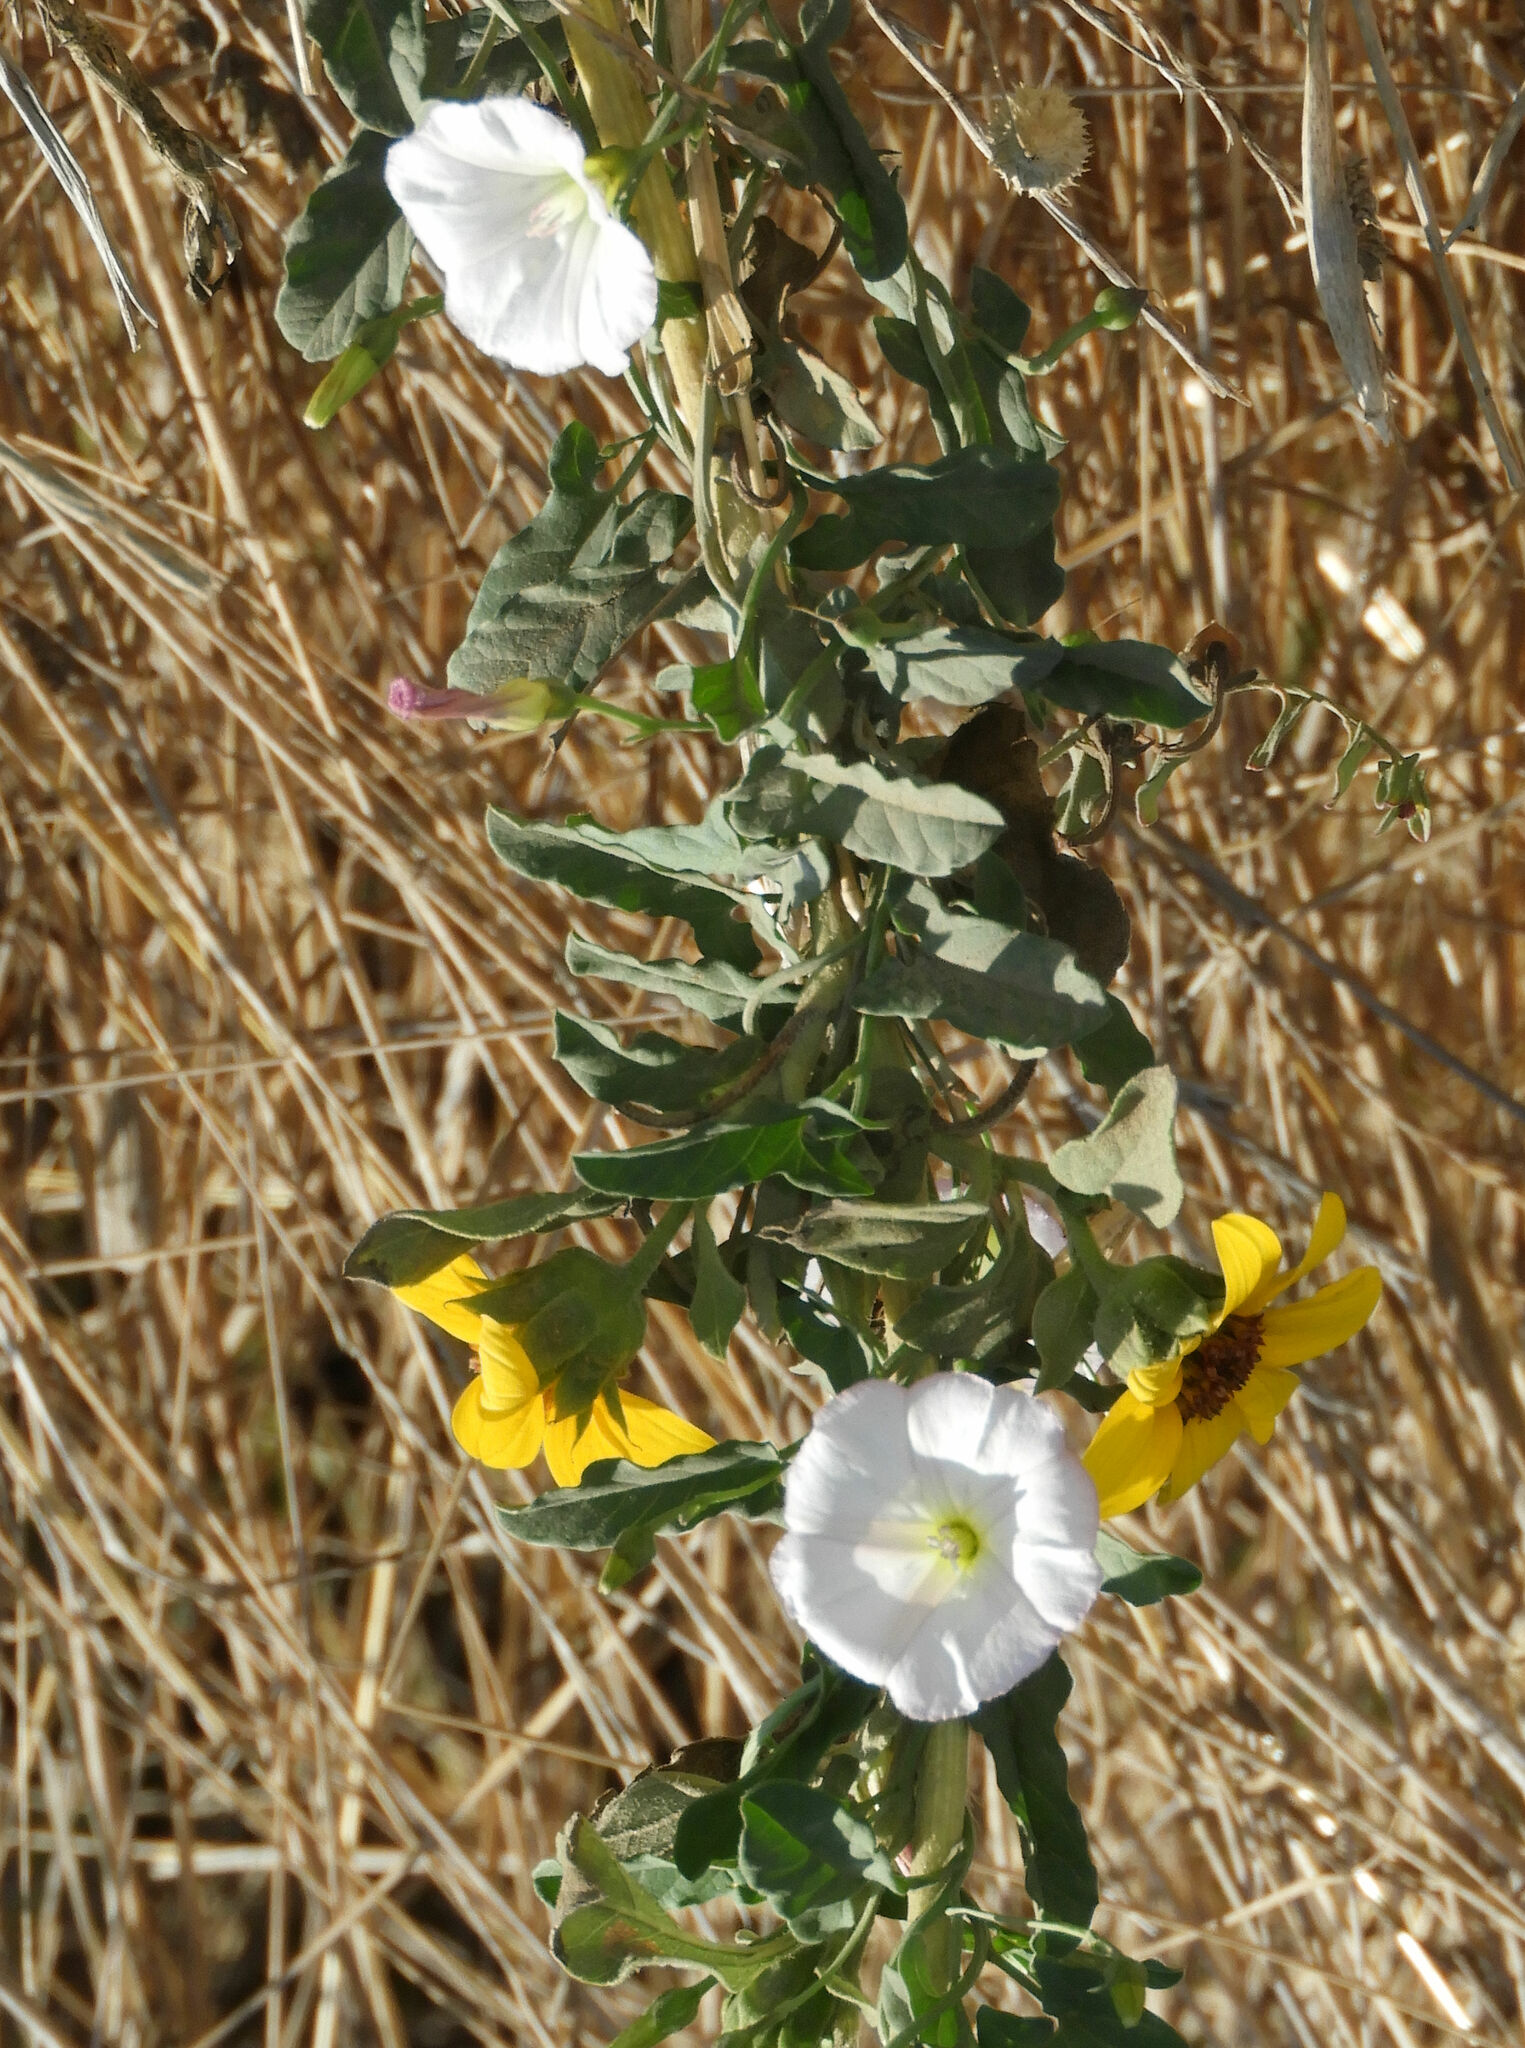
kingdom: Plantae
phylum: Tracheophyta
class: Magnoliopsida
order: Solanales
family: Convolvulaceae
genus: Convolvulus
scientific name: Convolvulus arvensis
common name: Field bindweed
